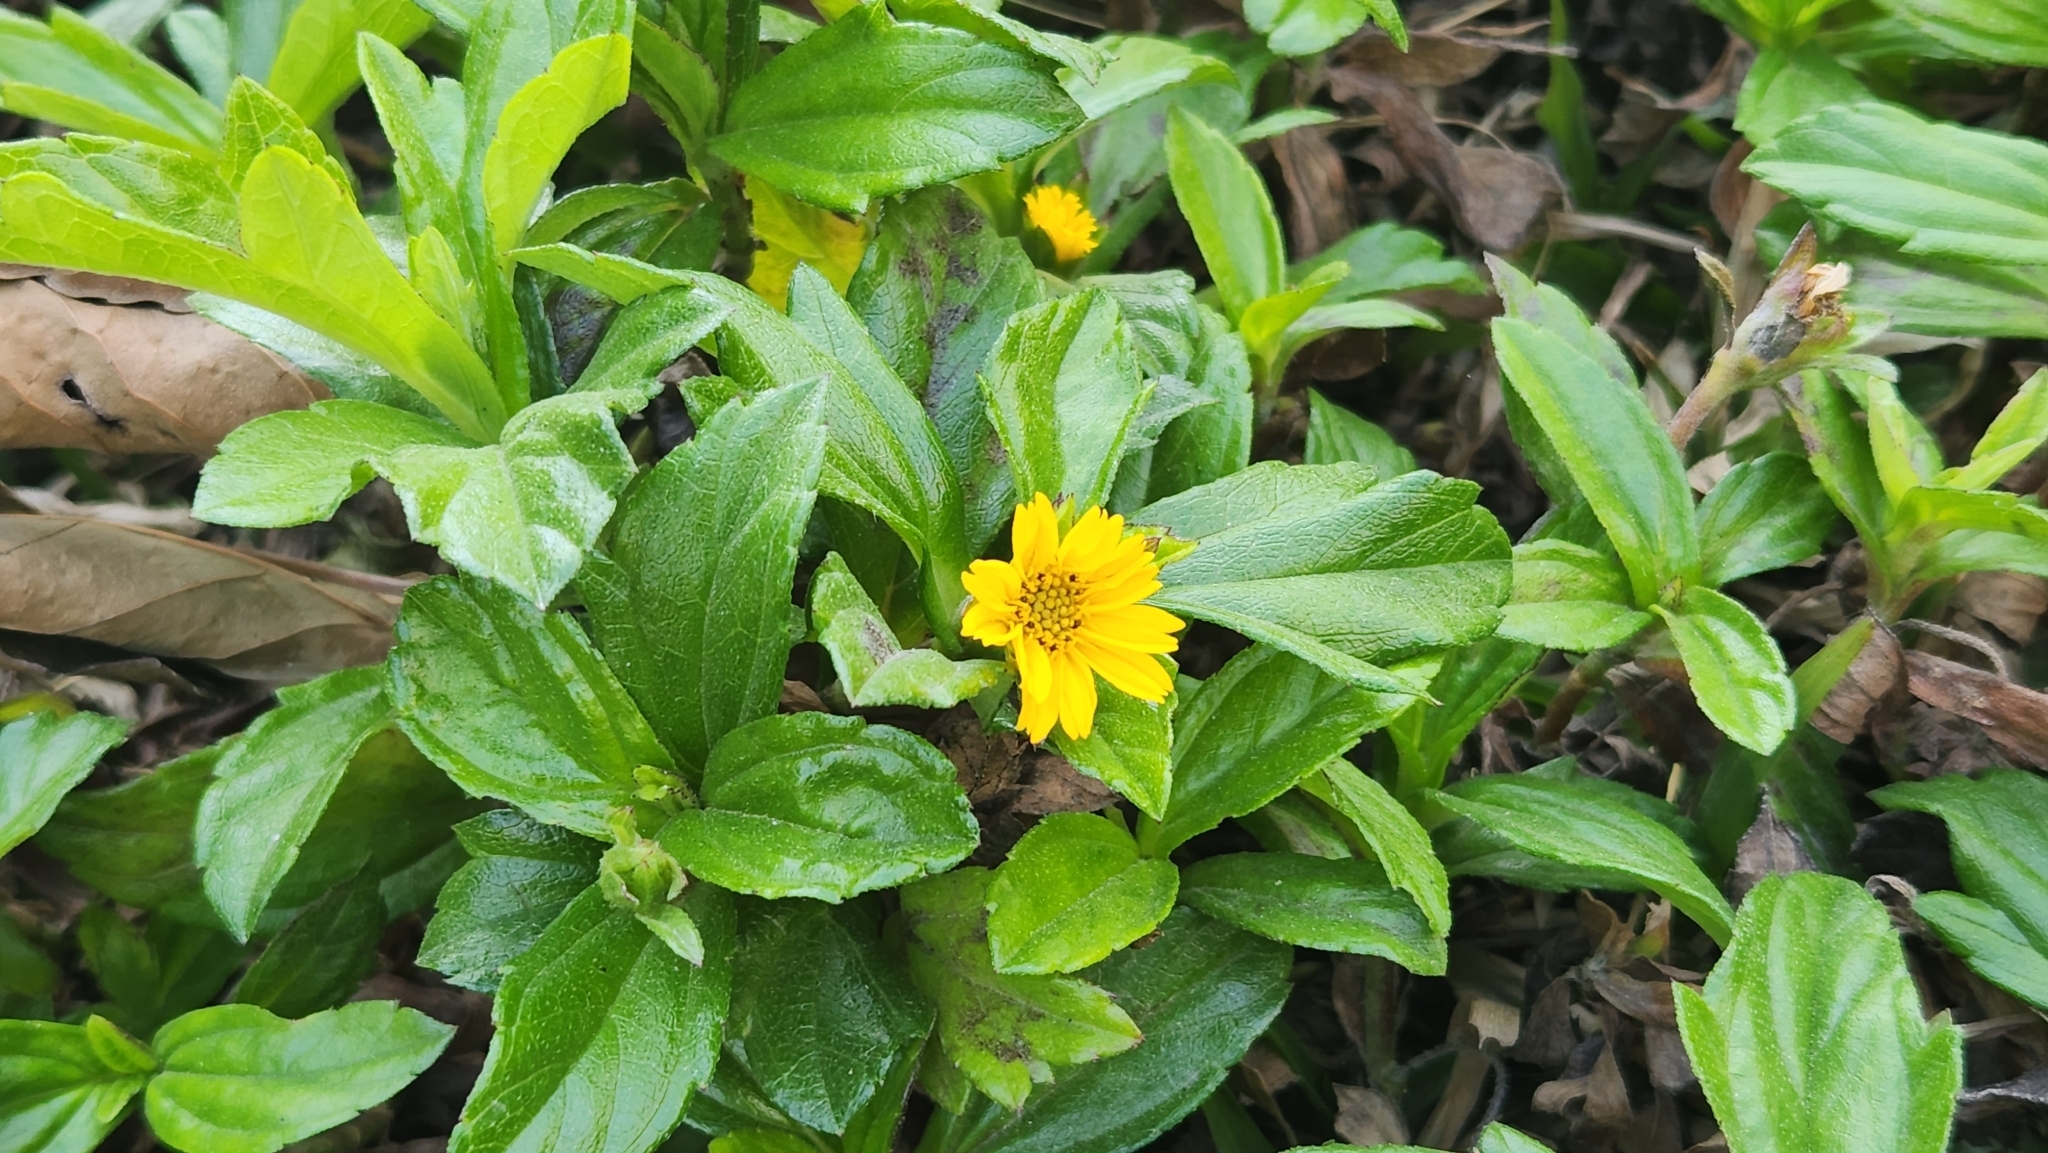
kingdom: Plantae
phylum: Tracheophyta
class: Magnoliopsida
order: Asterales
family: Asteraceae
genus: Sphagneticola
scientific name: Sphagneticola trilobata
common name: Bay biscayne creeping-oxeye
